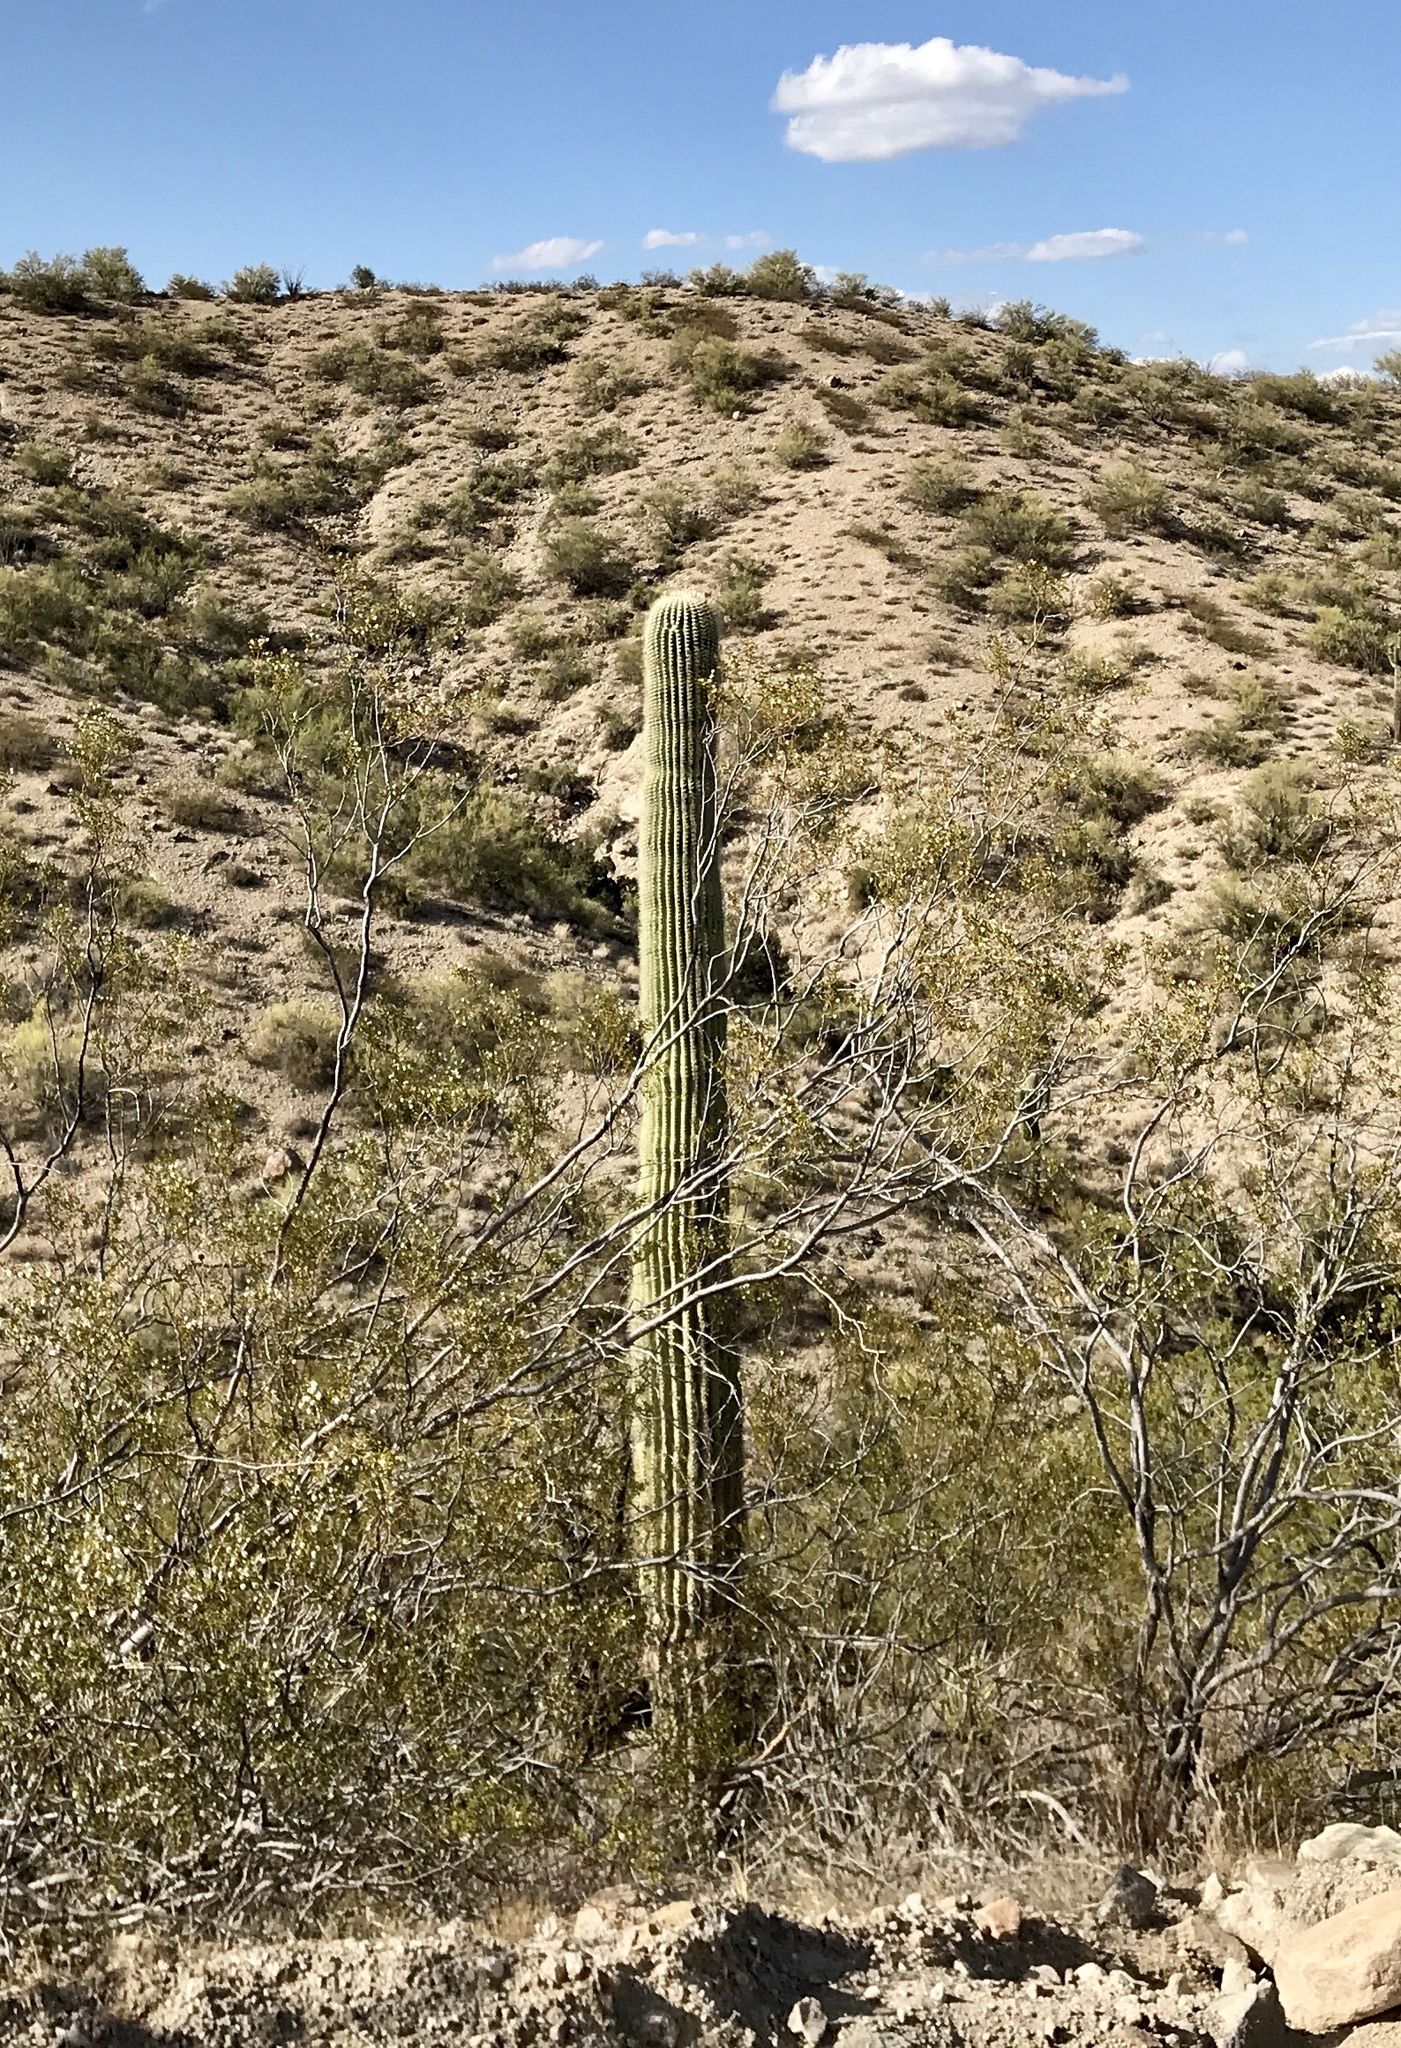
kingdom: Plantae
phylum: Tracheophyta
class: Magnoliopsida
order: Caryophyllales
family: Cactaceae
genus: Carnegiea
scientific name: Carnegiea gigantea
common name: Saguaro
